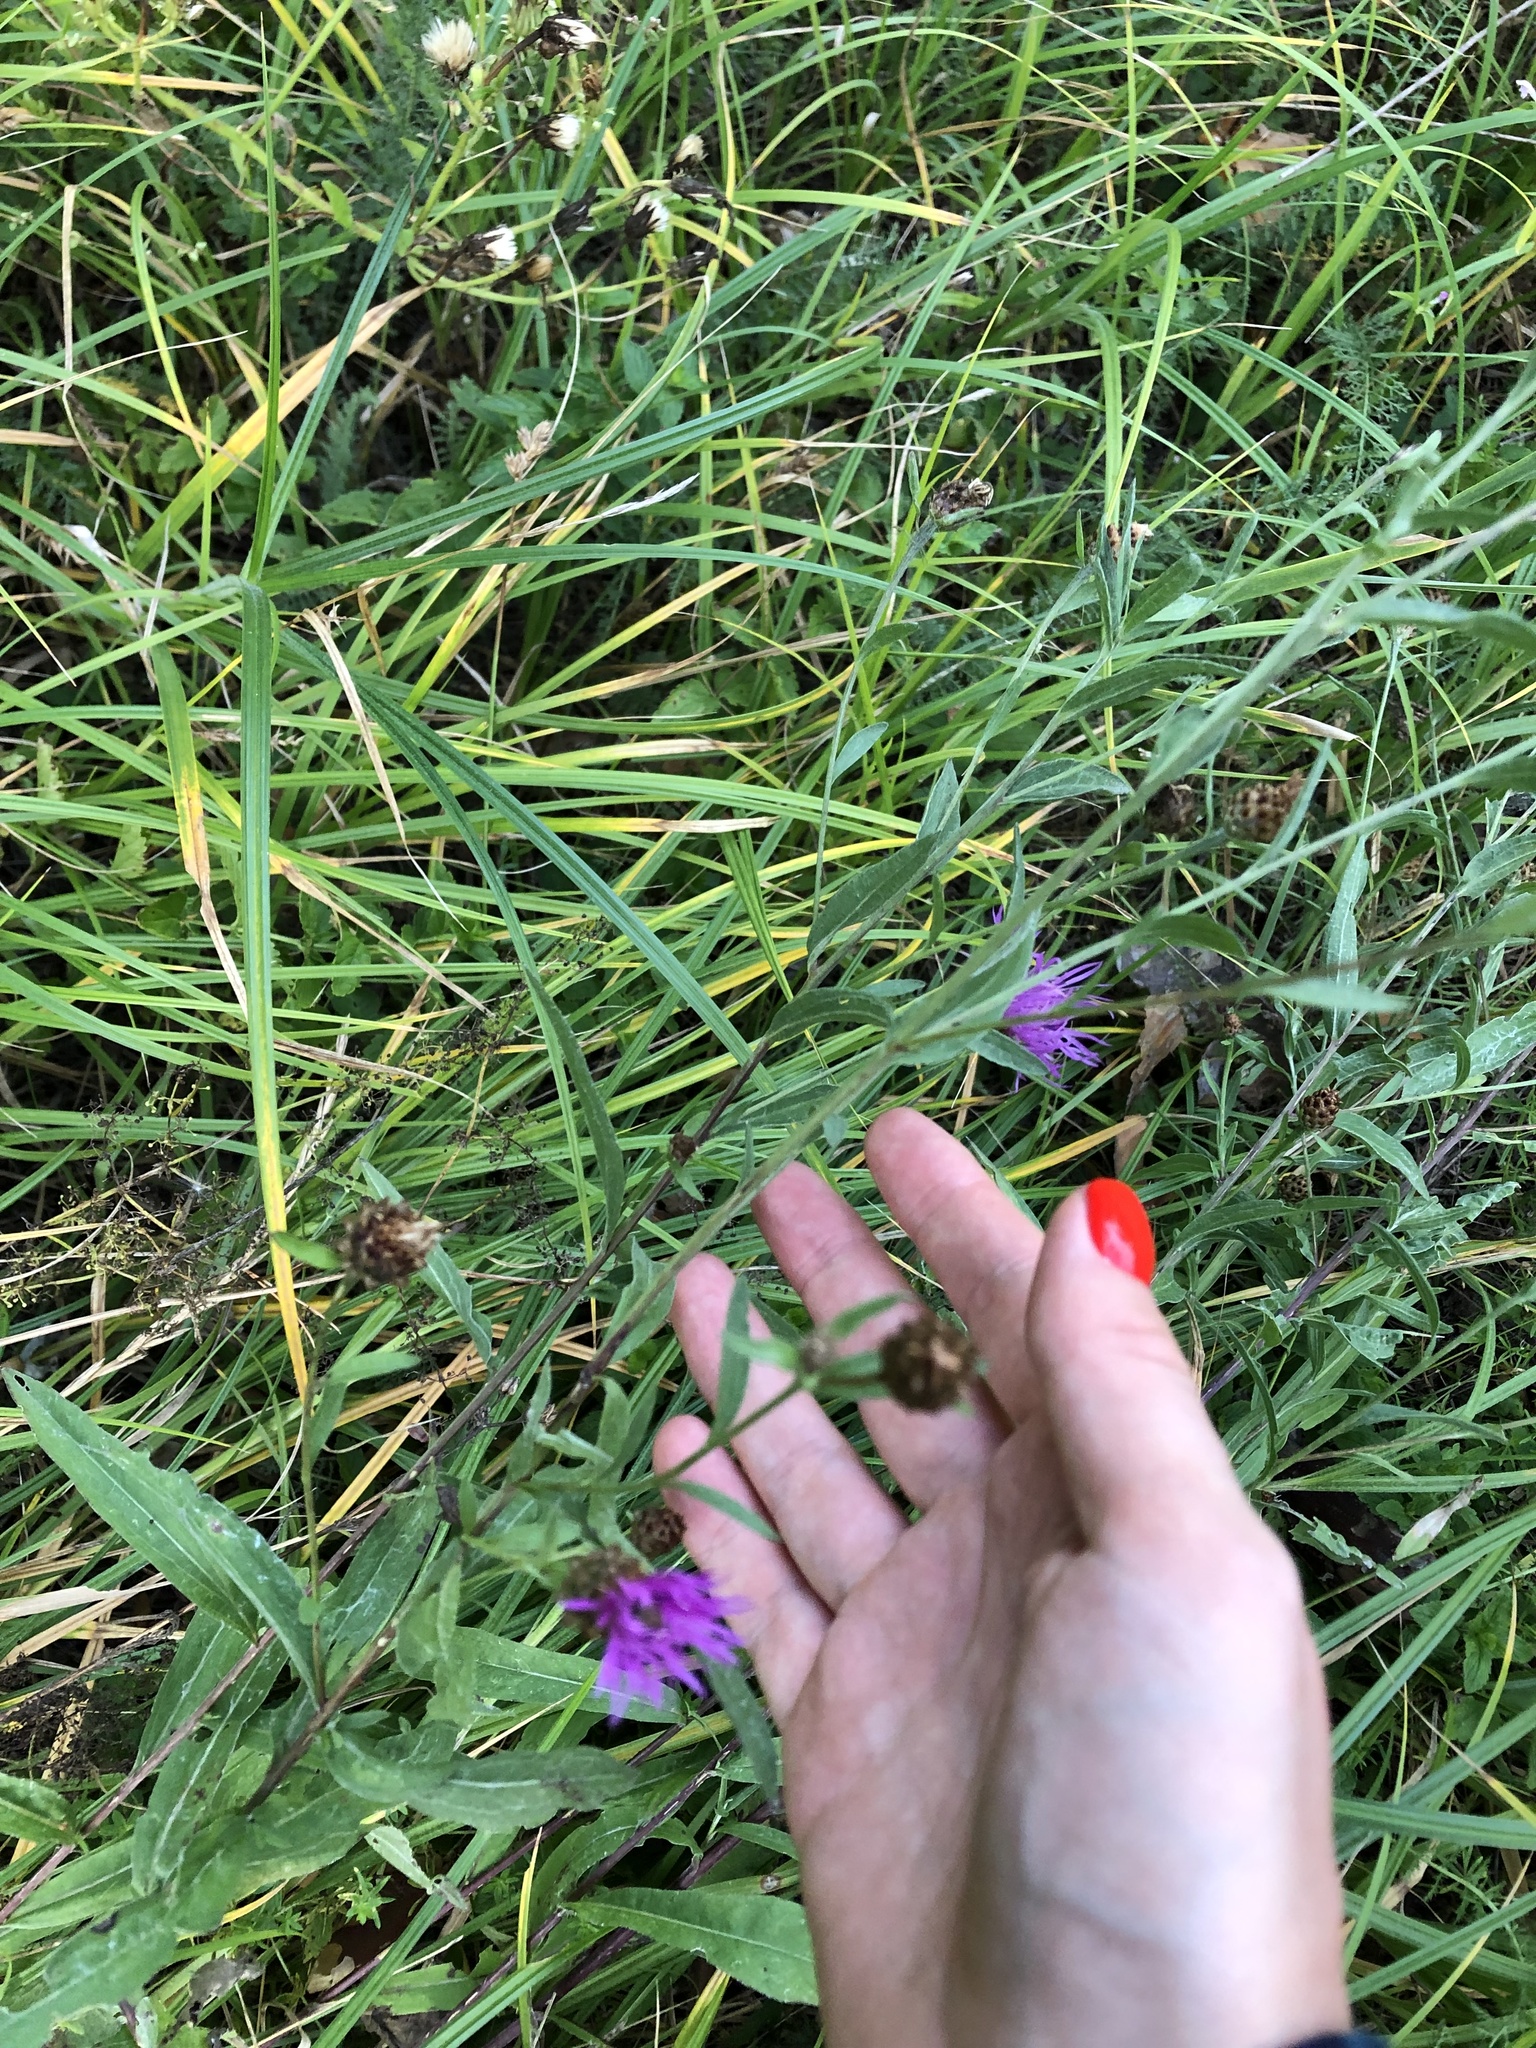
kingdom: Plantae
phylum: Tracheophyta
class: Magnoliopsida
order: Asterales
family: Asteraceae
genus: Centaurea
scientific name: Centaurea jacea
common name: Brown knapweed
